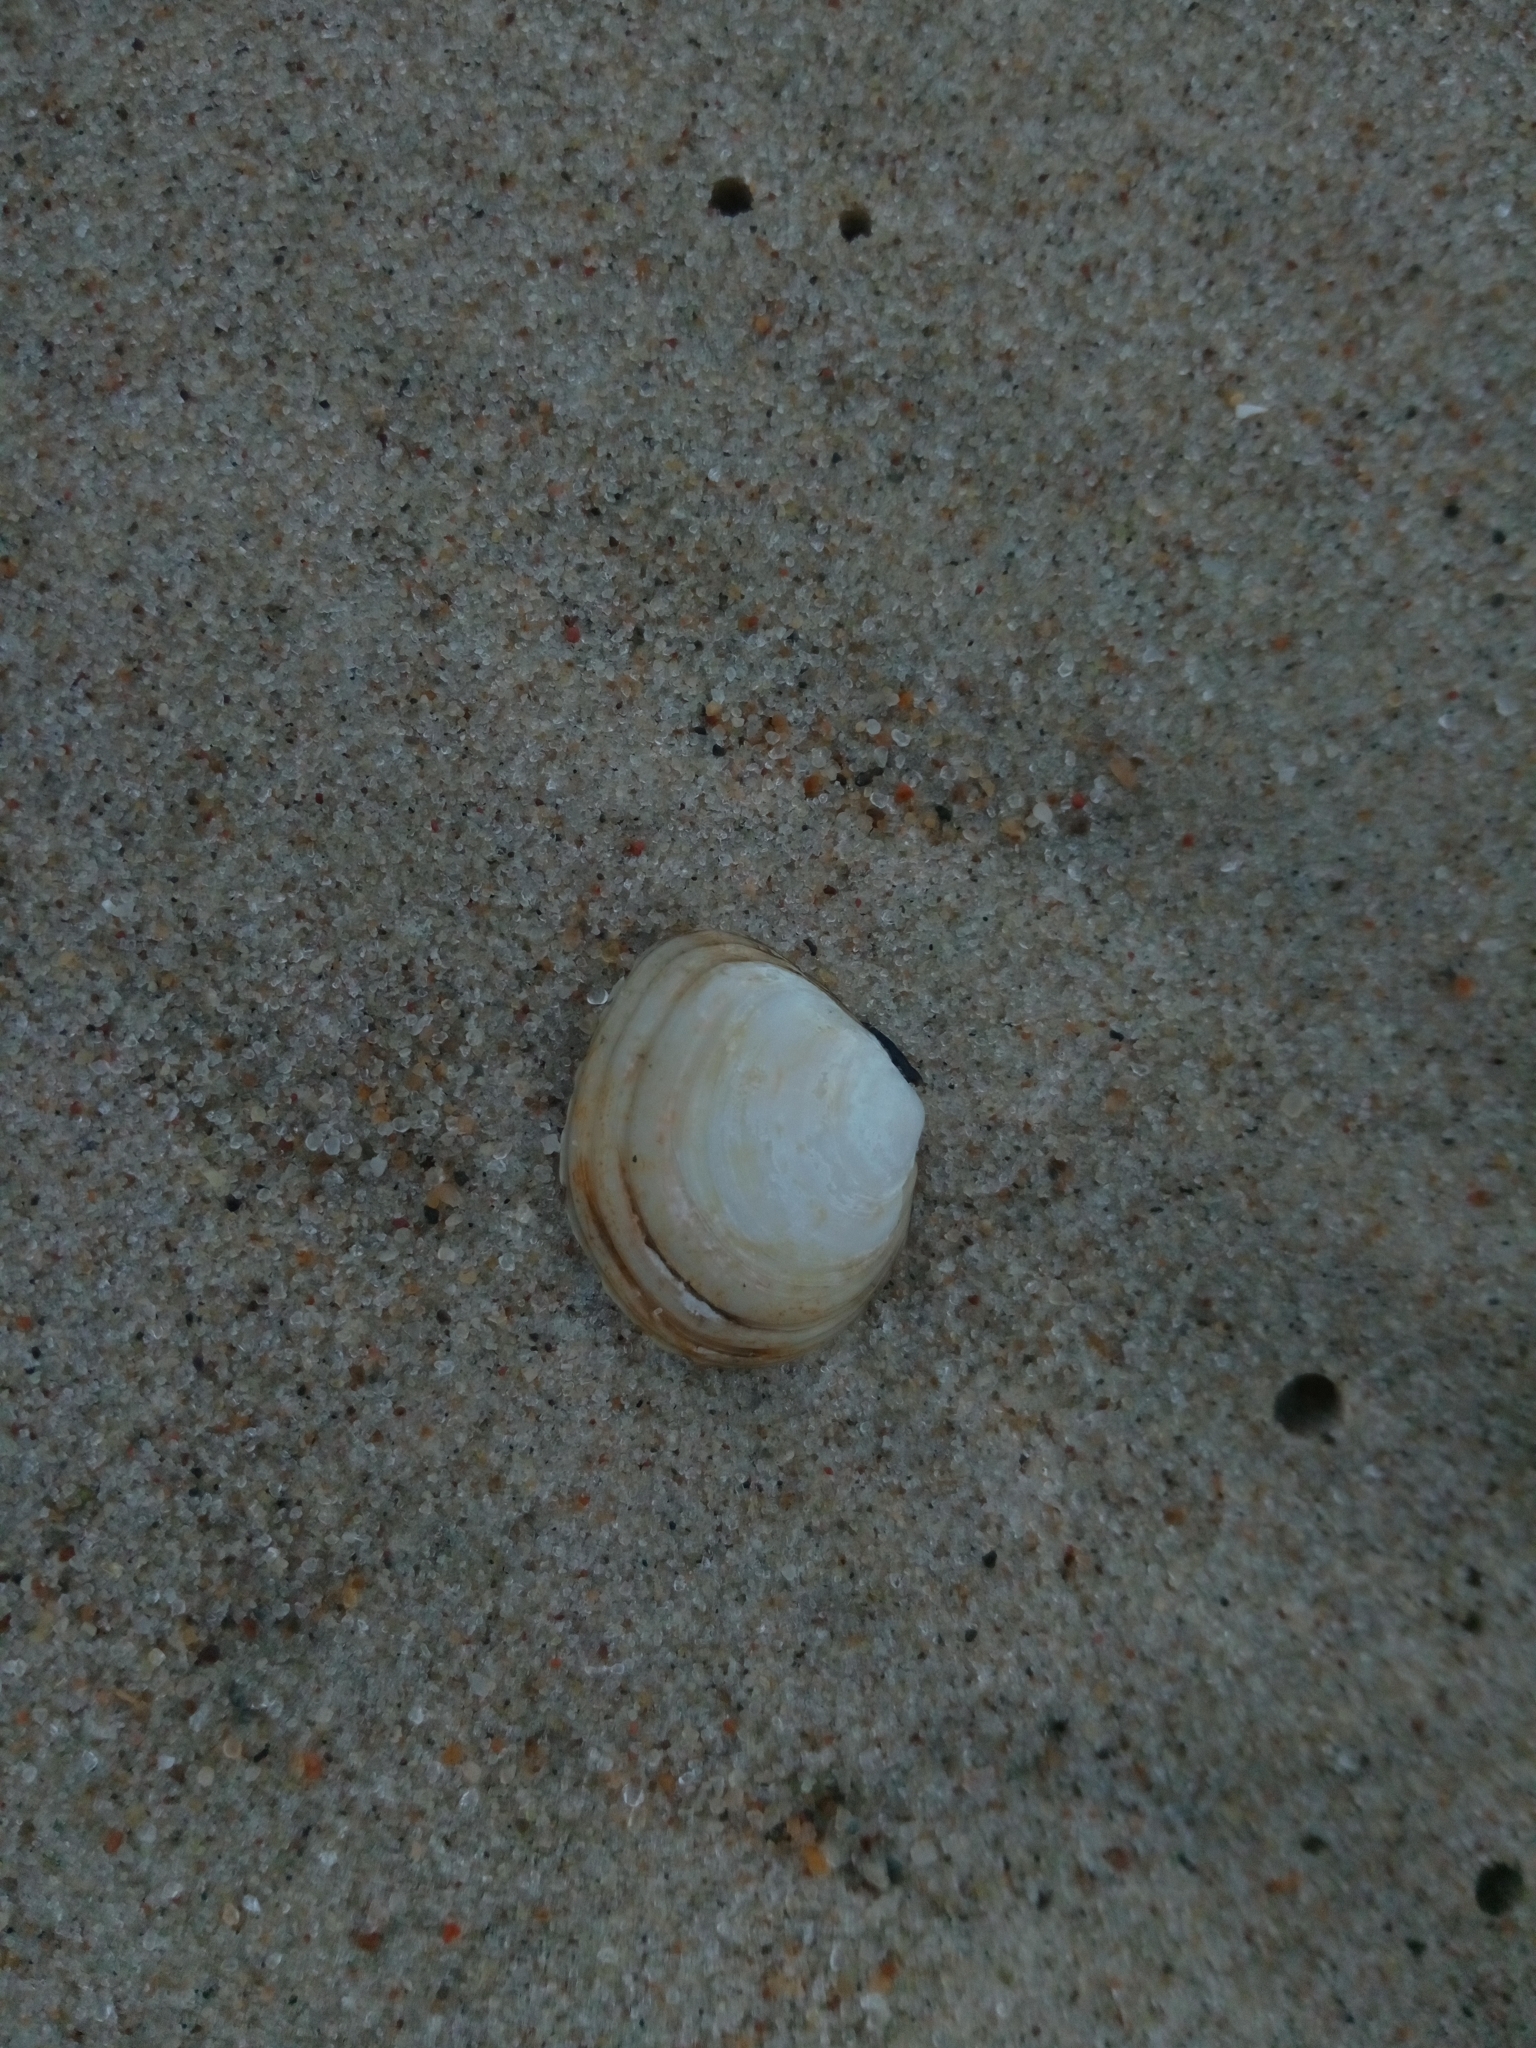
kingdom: Animalia
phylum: Mollusca
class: Bivalvia
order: Cardiida
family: Tellinidae
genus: Macoma
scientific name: Macoma balthica
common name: Baltic tellin
